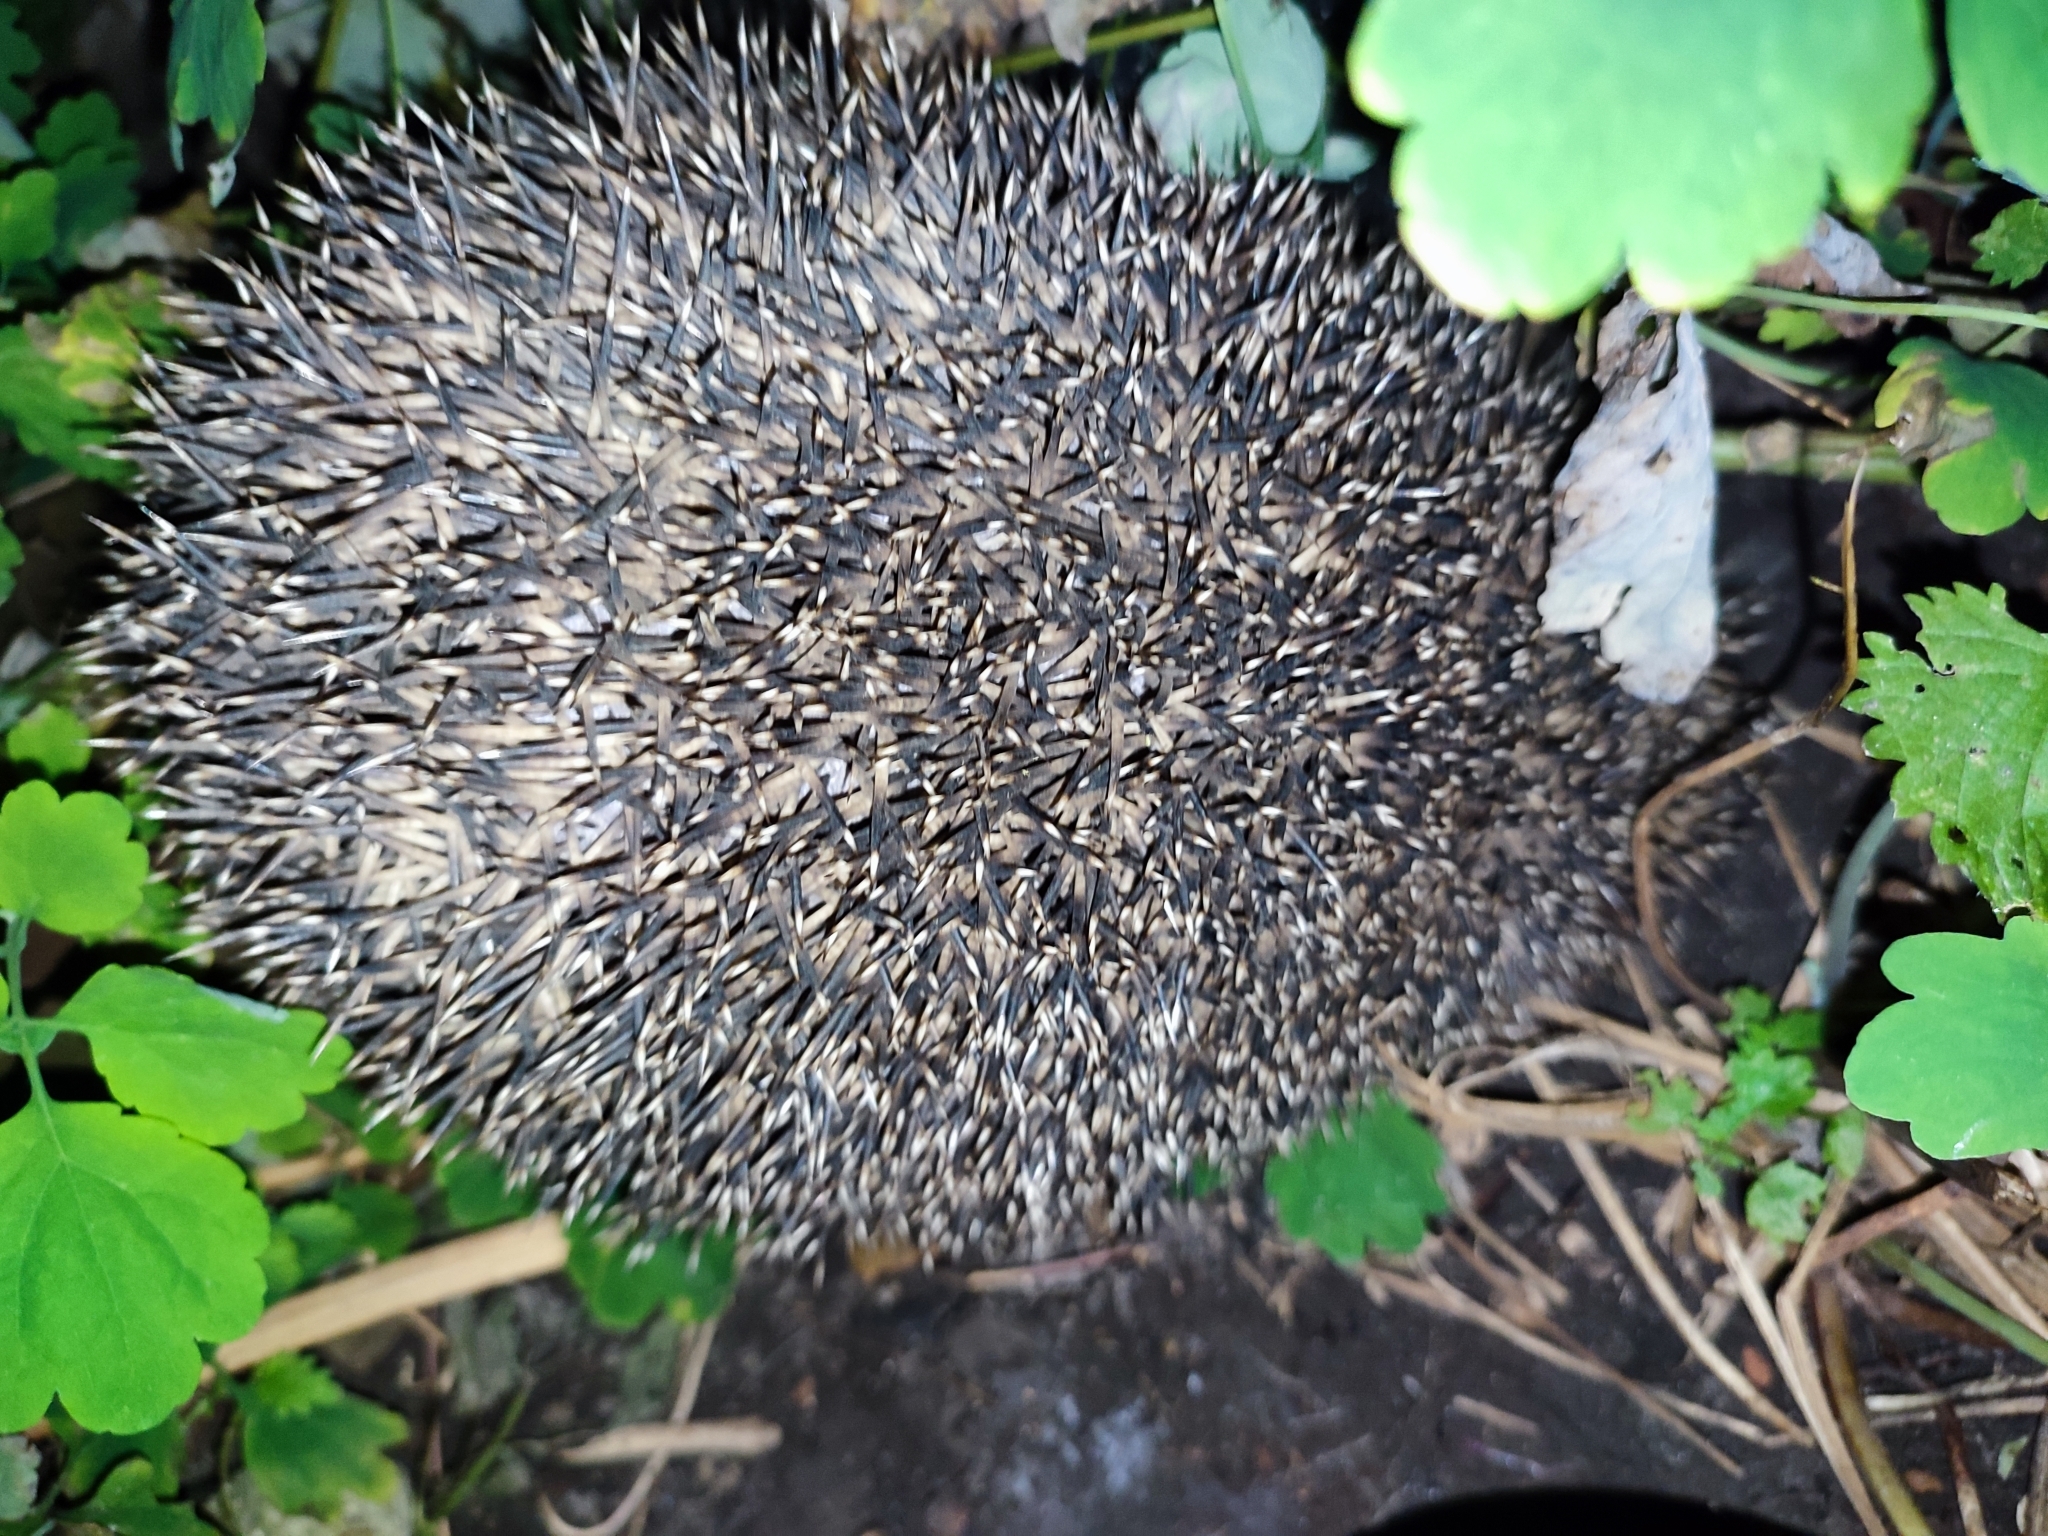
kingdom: Animalia
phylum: Chordata
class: Mammalia
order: Erinaceomorpha
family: Erinaceidae
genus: Erinaceus
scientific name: Erinaceus roumanicus
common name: Northern white-breasted hedgehog
